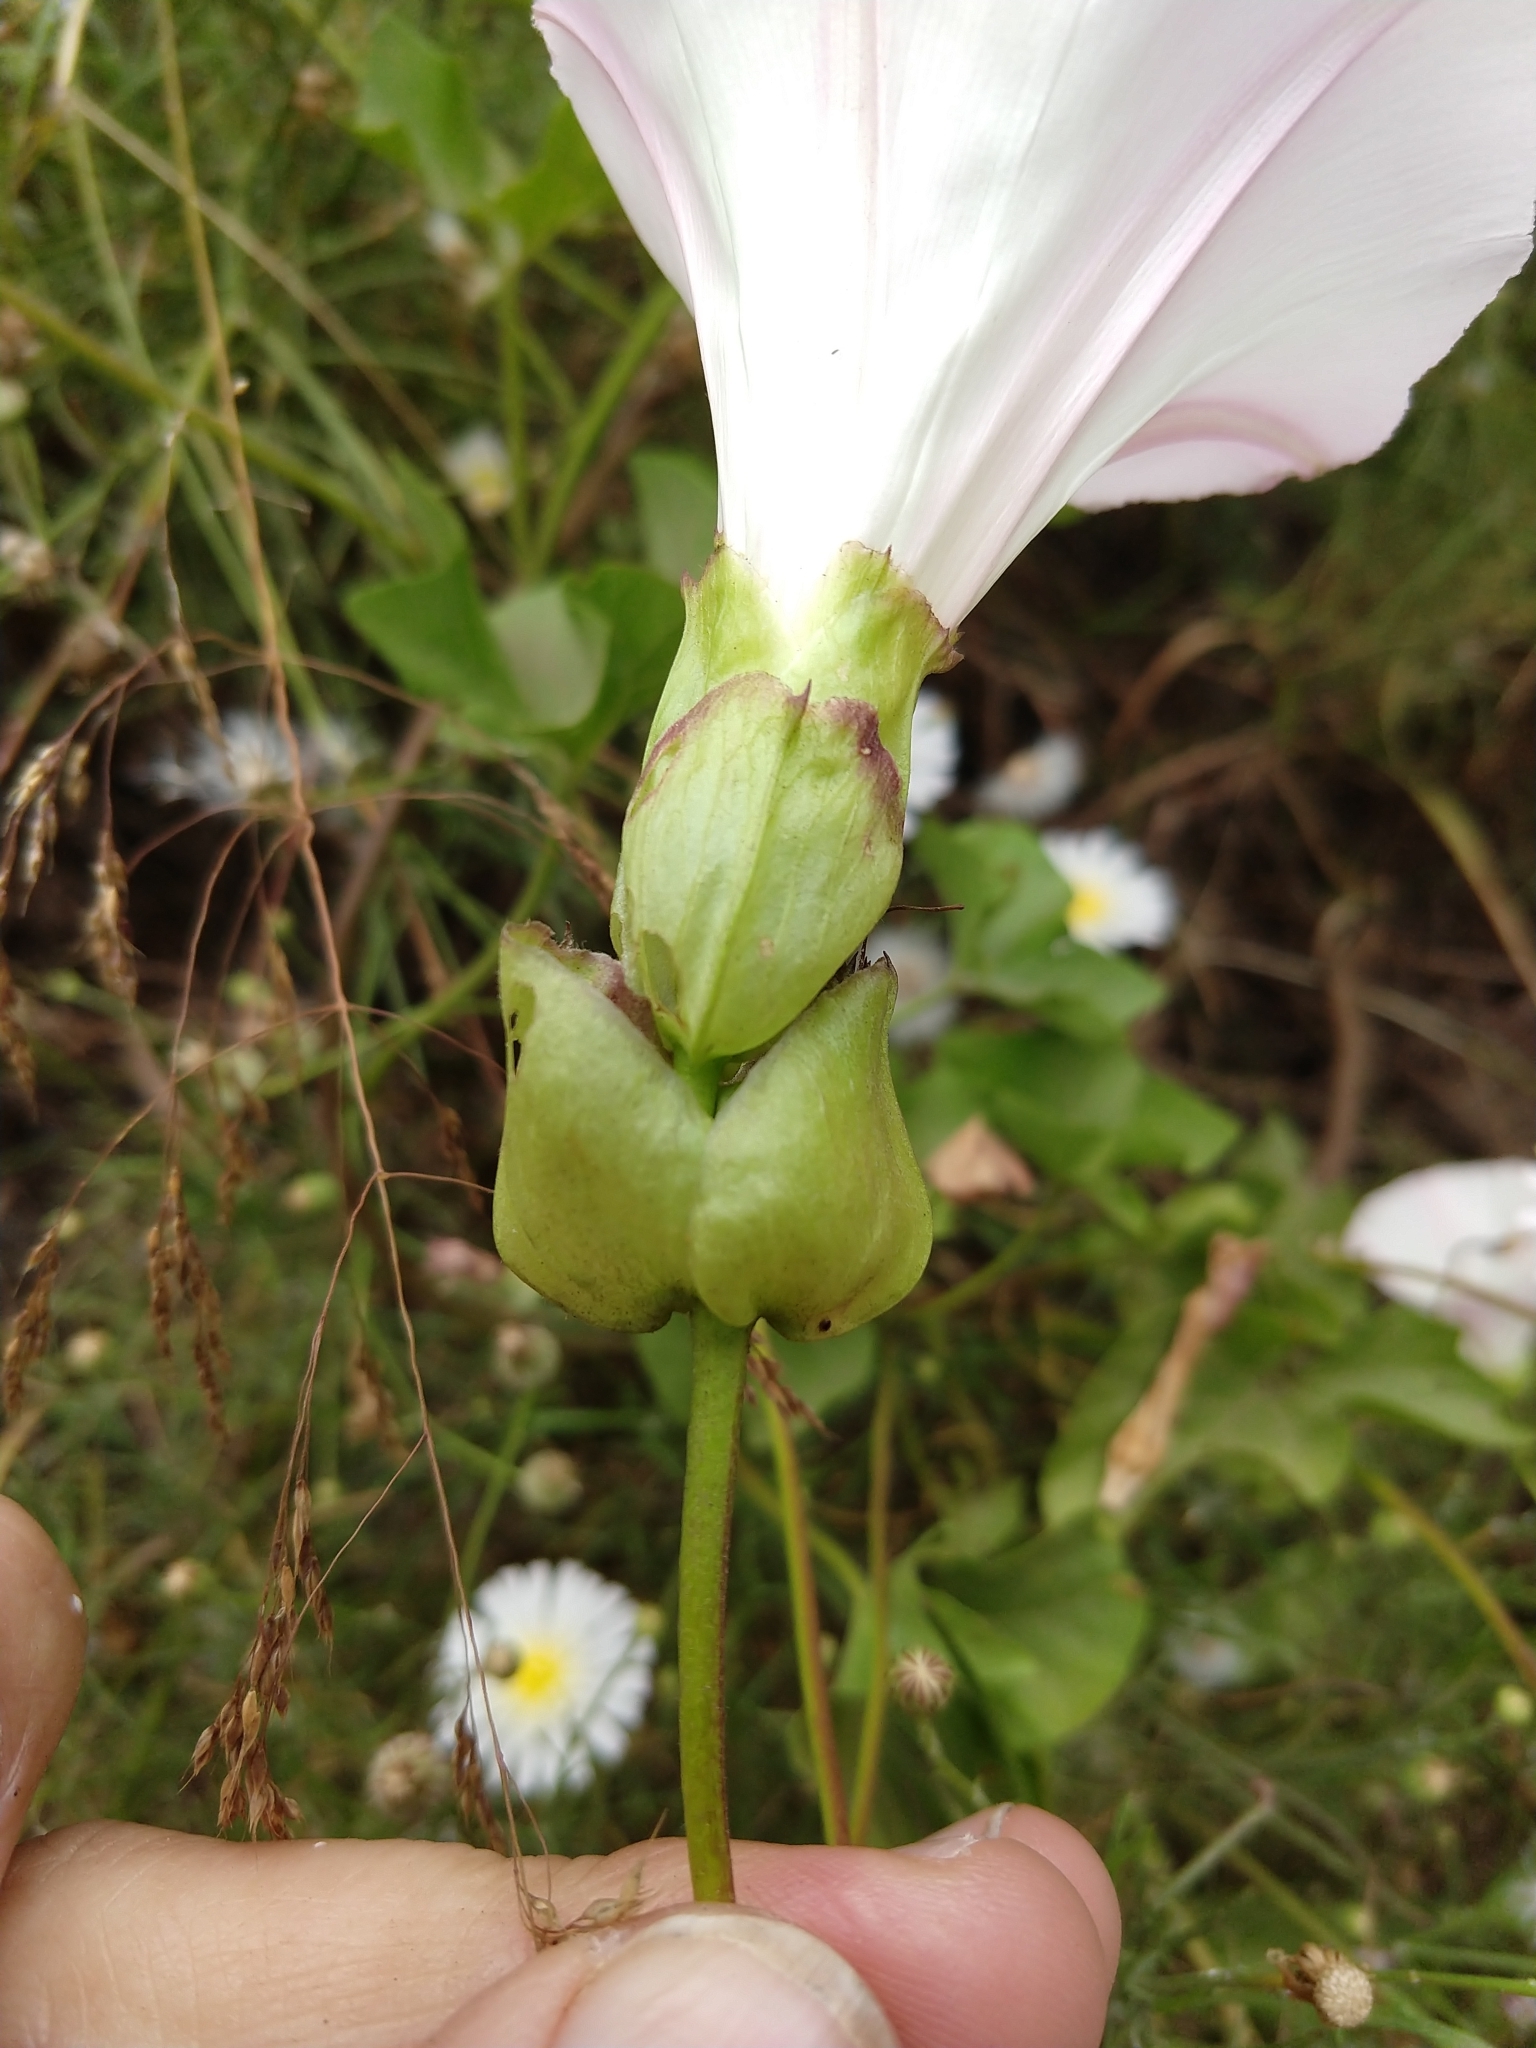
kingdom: Plantae
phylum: Tracheophyta
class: Magnoliopsida
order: Solanales
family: Convolvulaceae
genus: Calystegia
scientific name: Calystegia macrostegia
